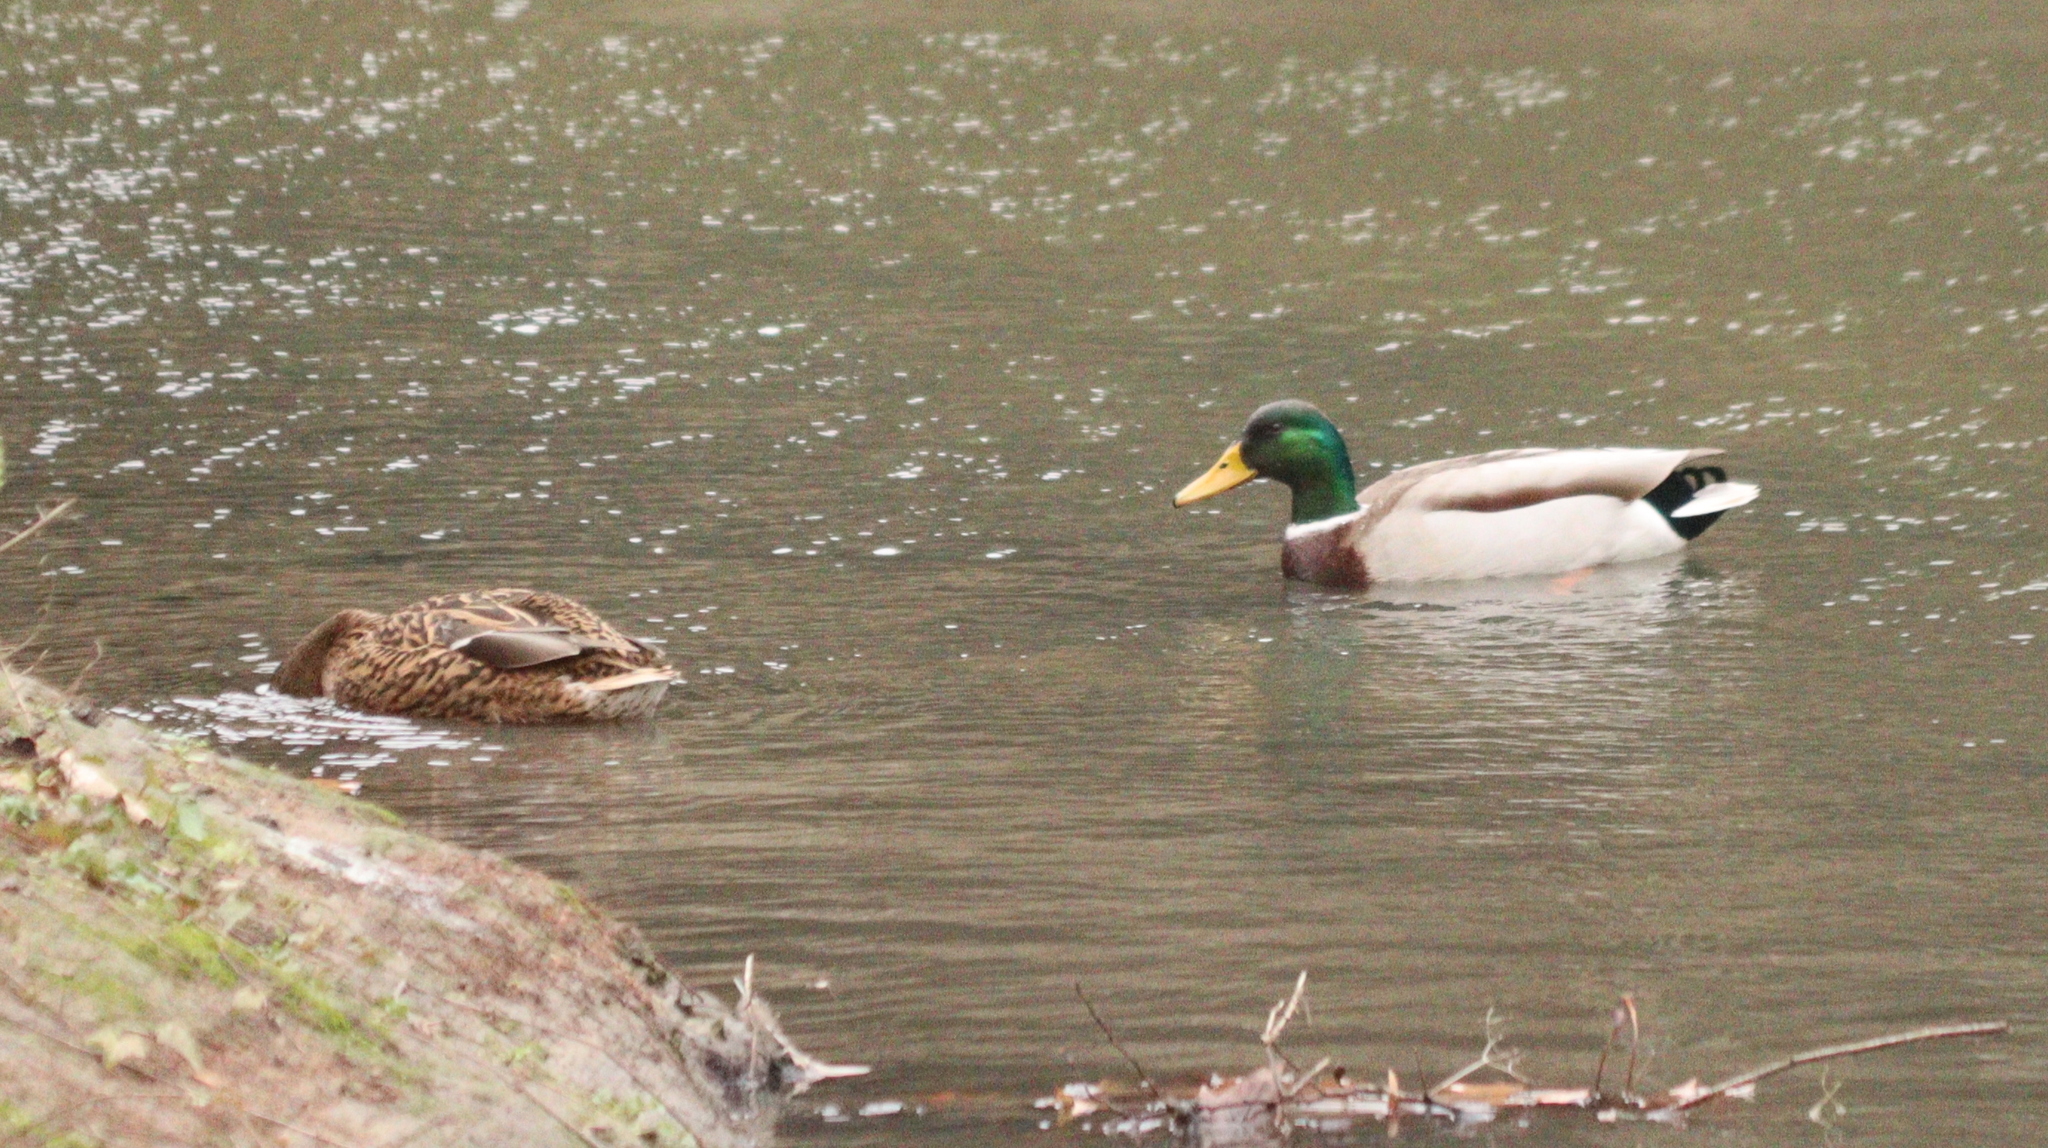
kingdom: Animalia
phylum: Chordata
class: Aves
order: Anseriformes
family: Anatidae
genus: Anas
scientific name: Anas platyrhynchos
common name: Mallard
